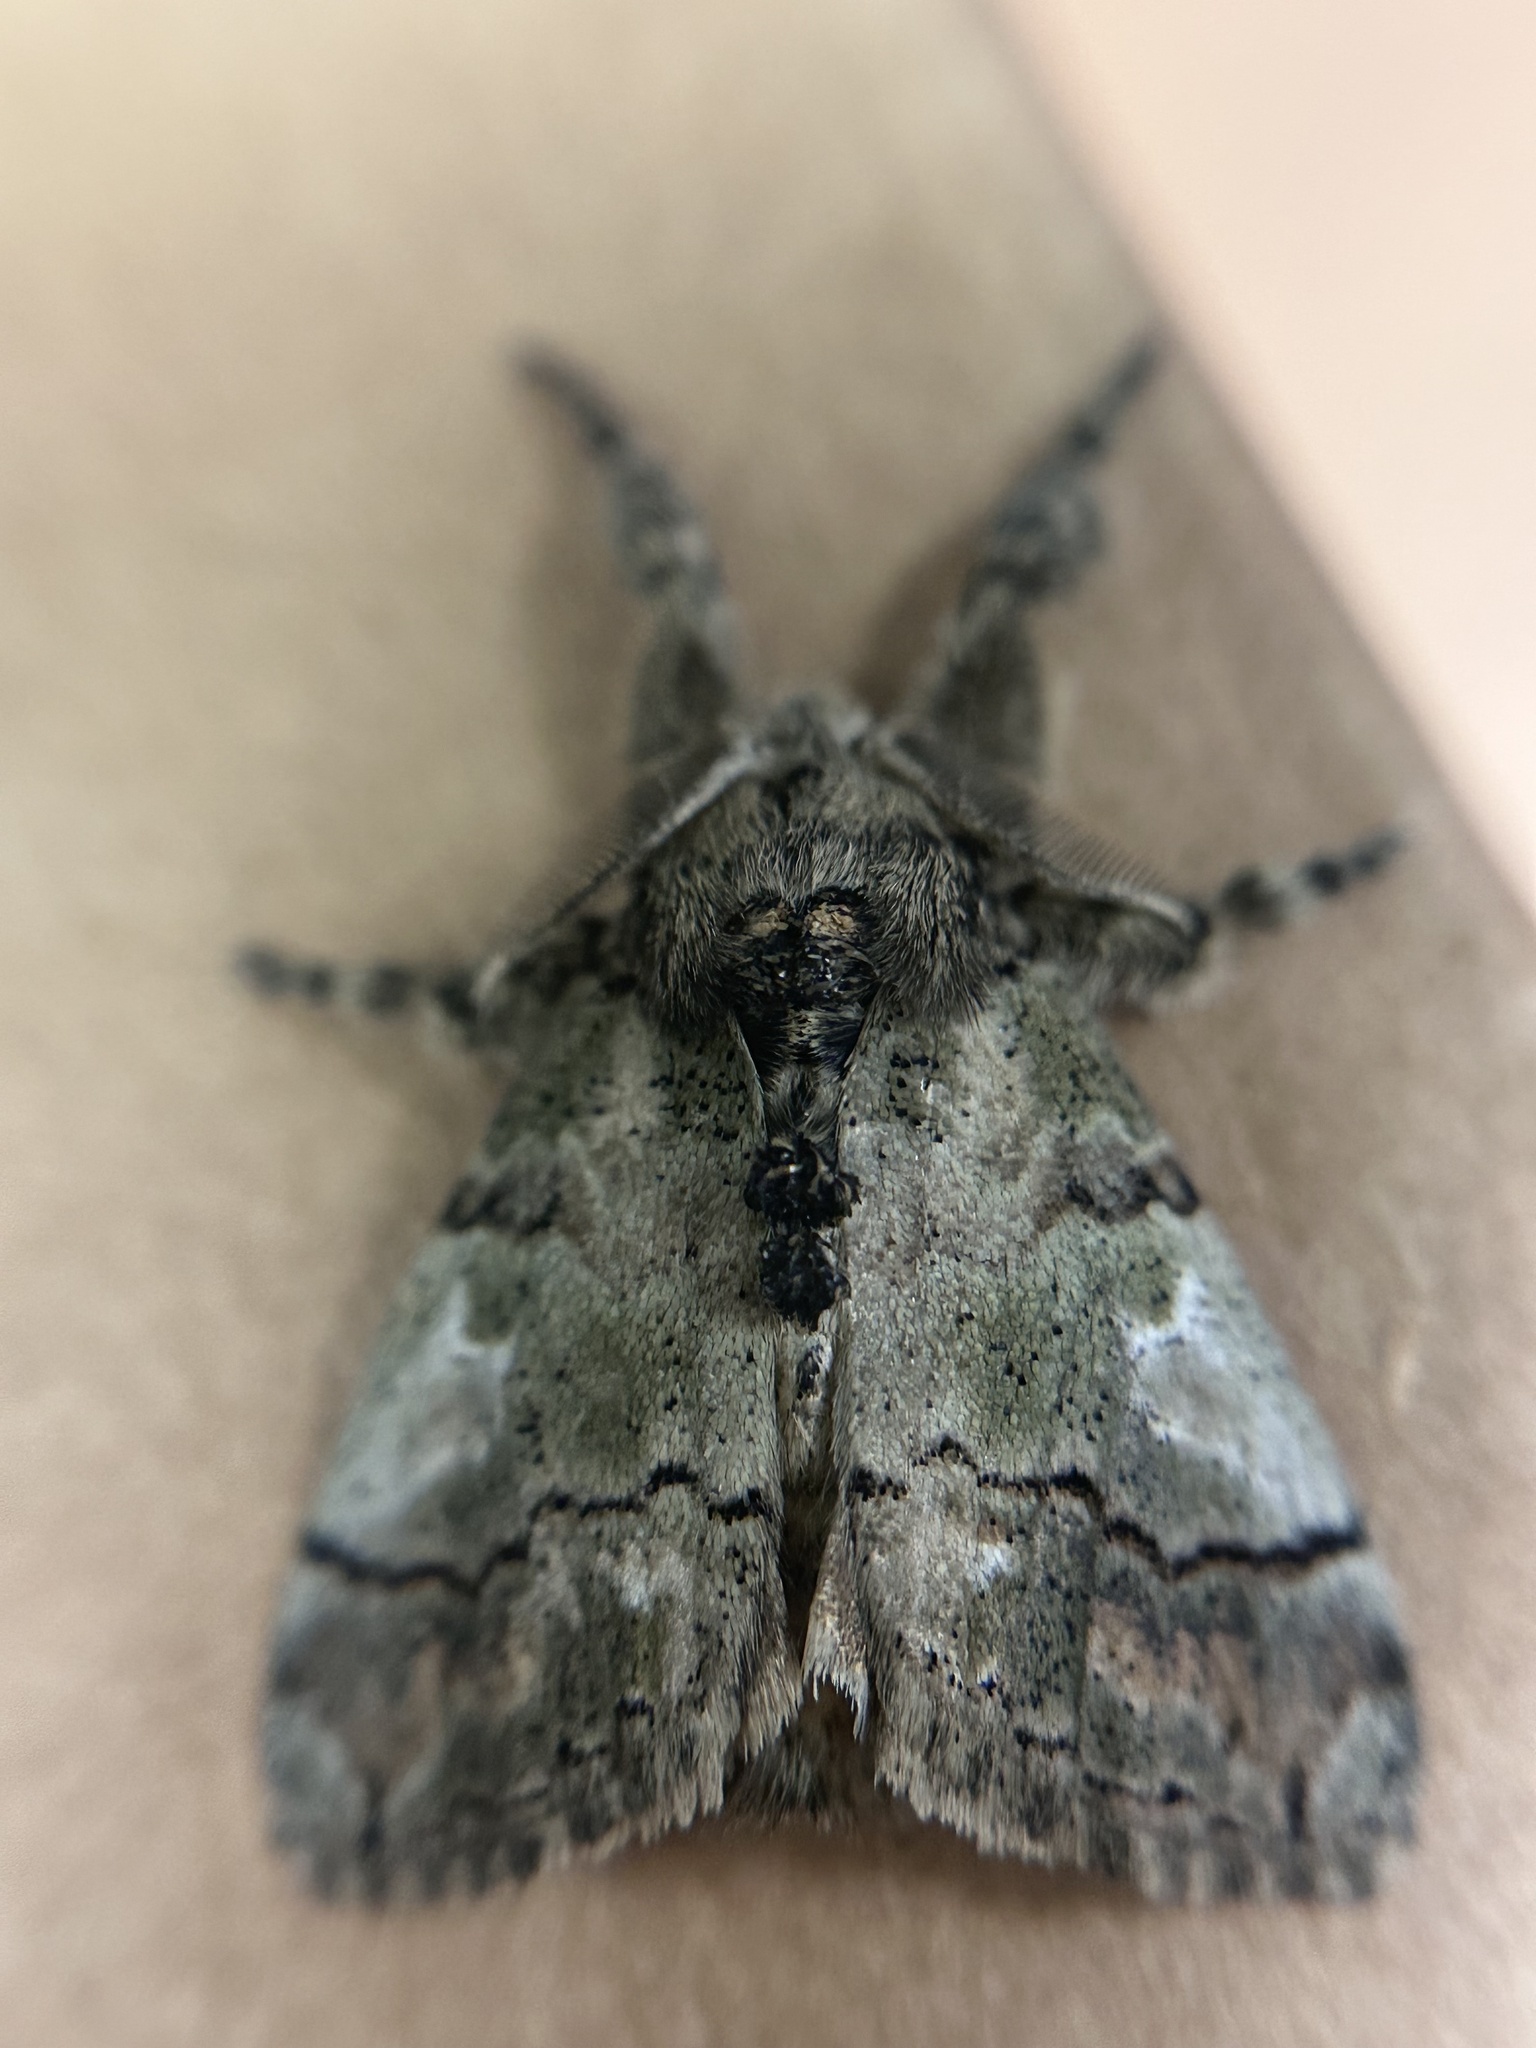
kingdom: Animalia
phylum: Arthropoda
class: Insecta
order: Lepidoptera
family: Erebidae
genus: Dasychira
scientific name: Dasychira meridionalis
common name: Southern tussock moth
